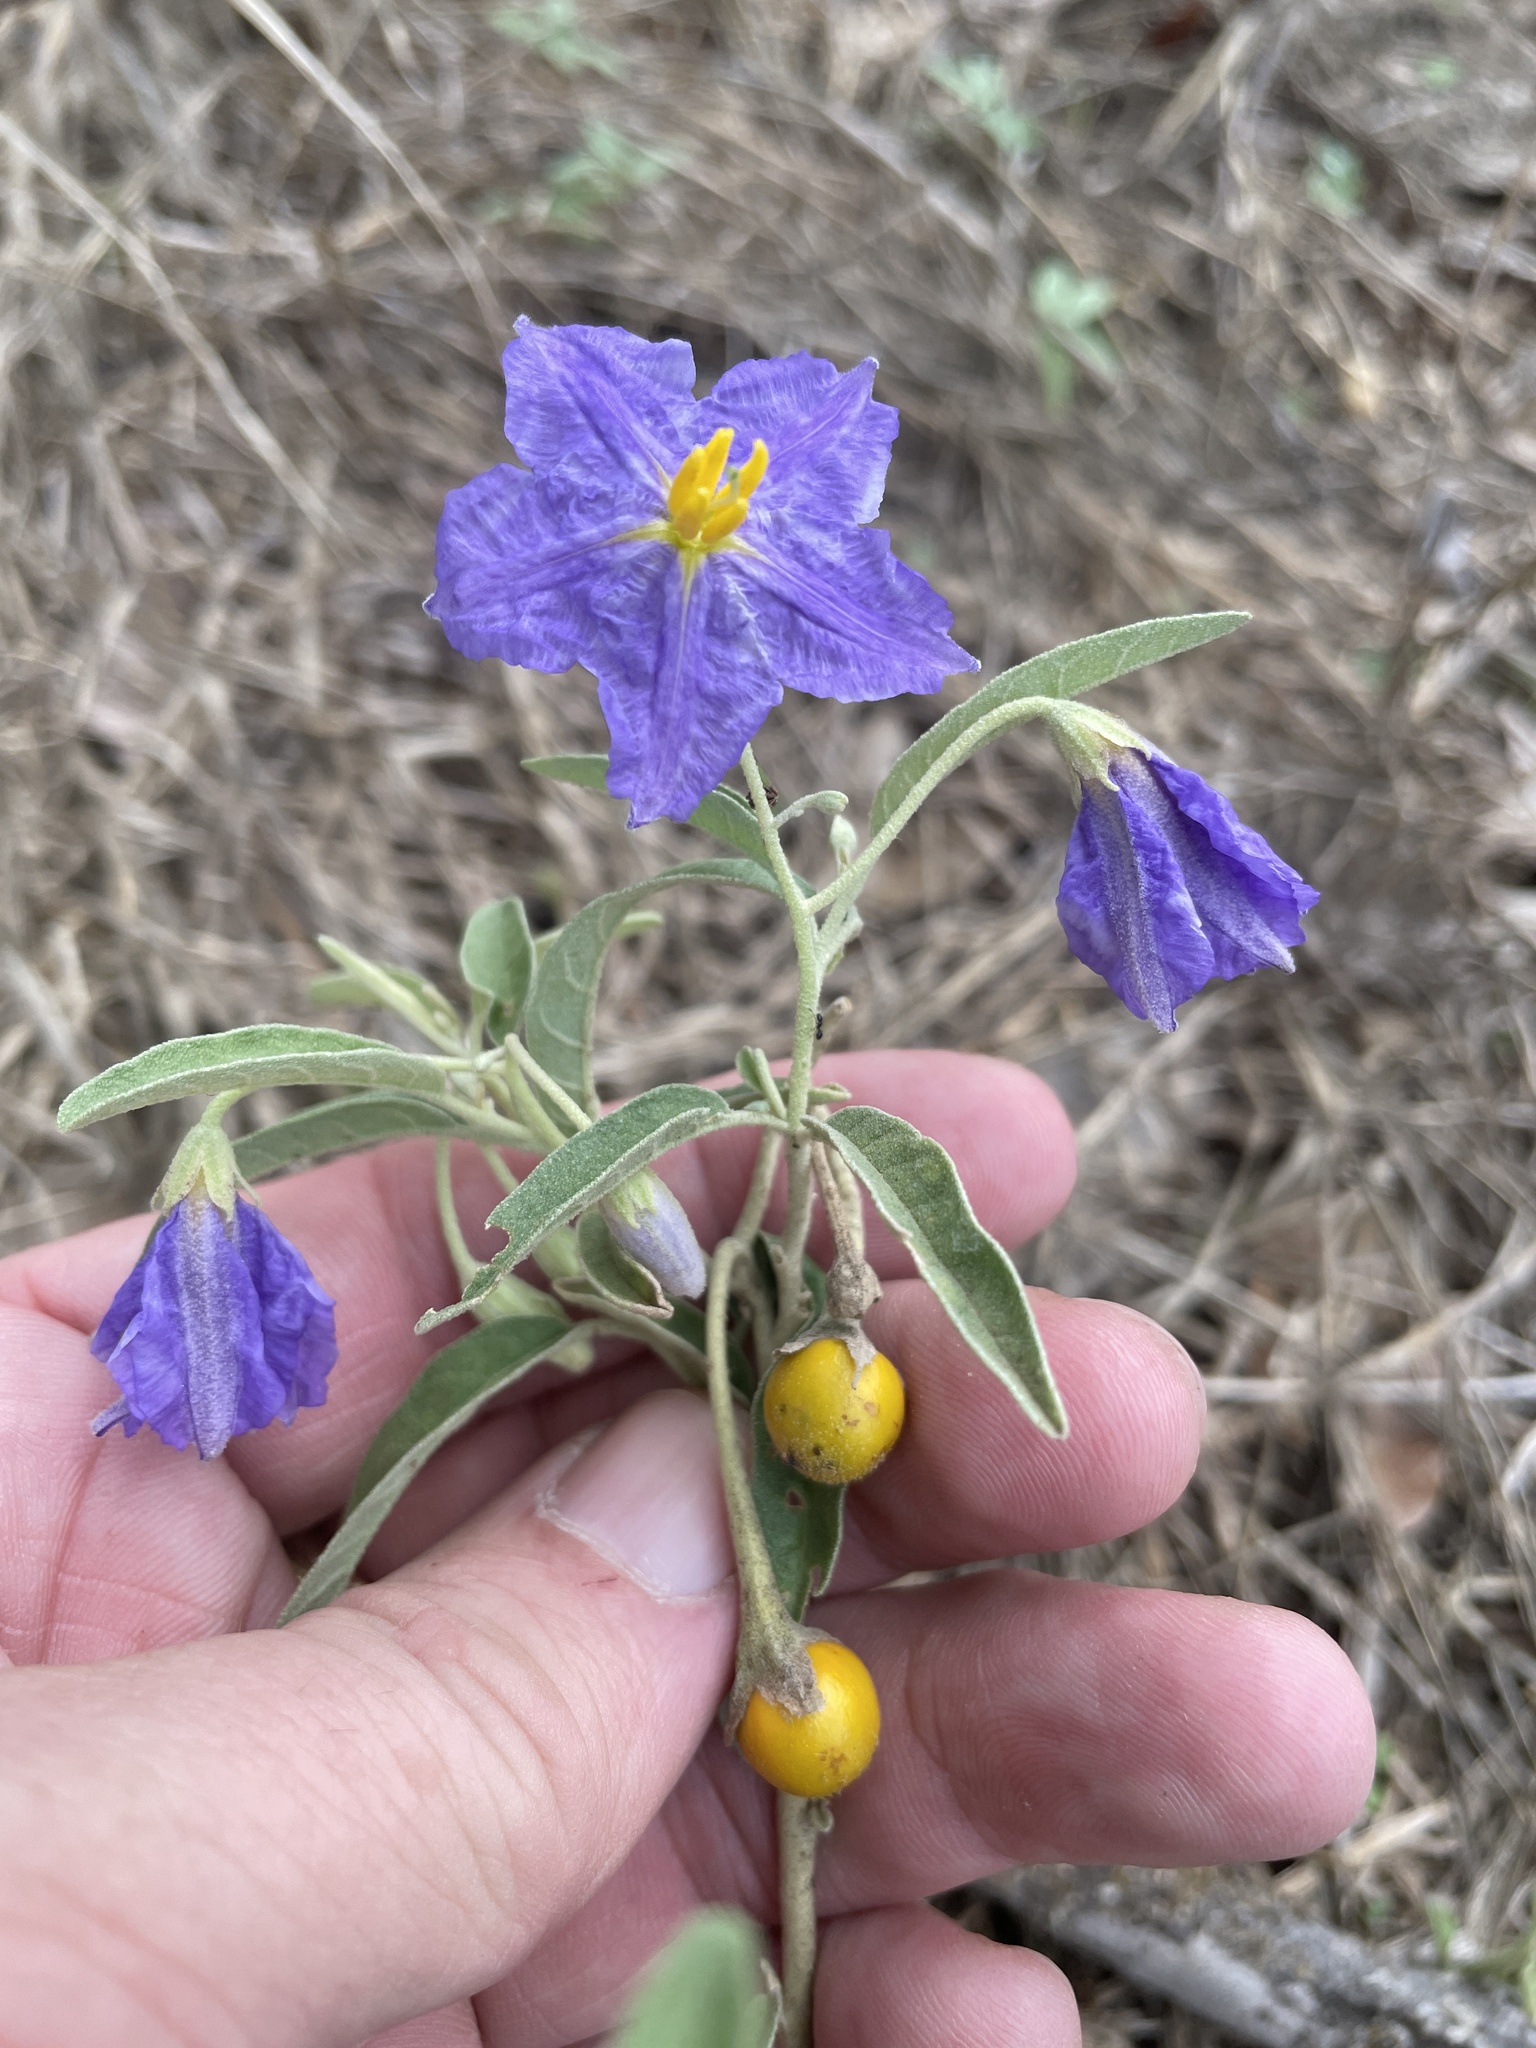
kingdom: Plantae
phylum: Tracheophyta
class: Magnoliopsida
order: Solanales
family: Solanaceae
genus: Solanum
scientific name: Solanum elaeagnifolium
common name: Silverleaf nightshade
